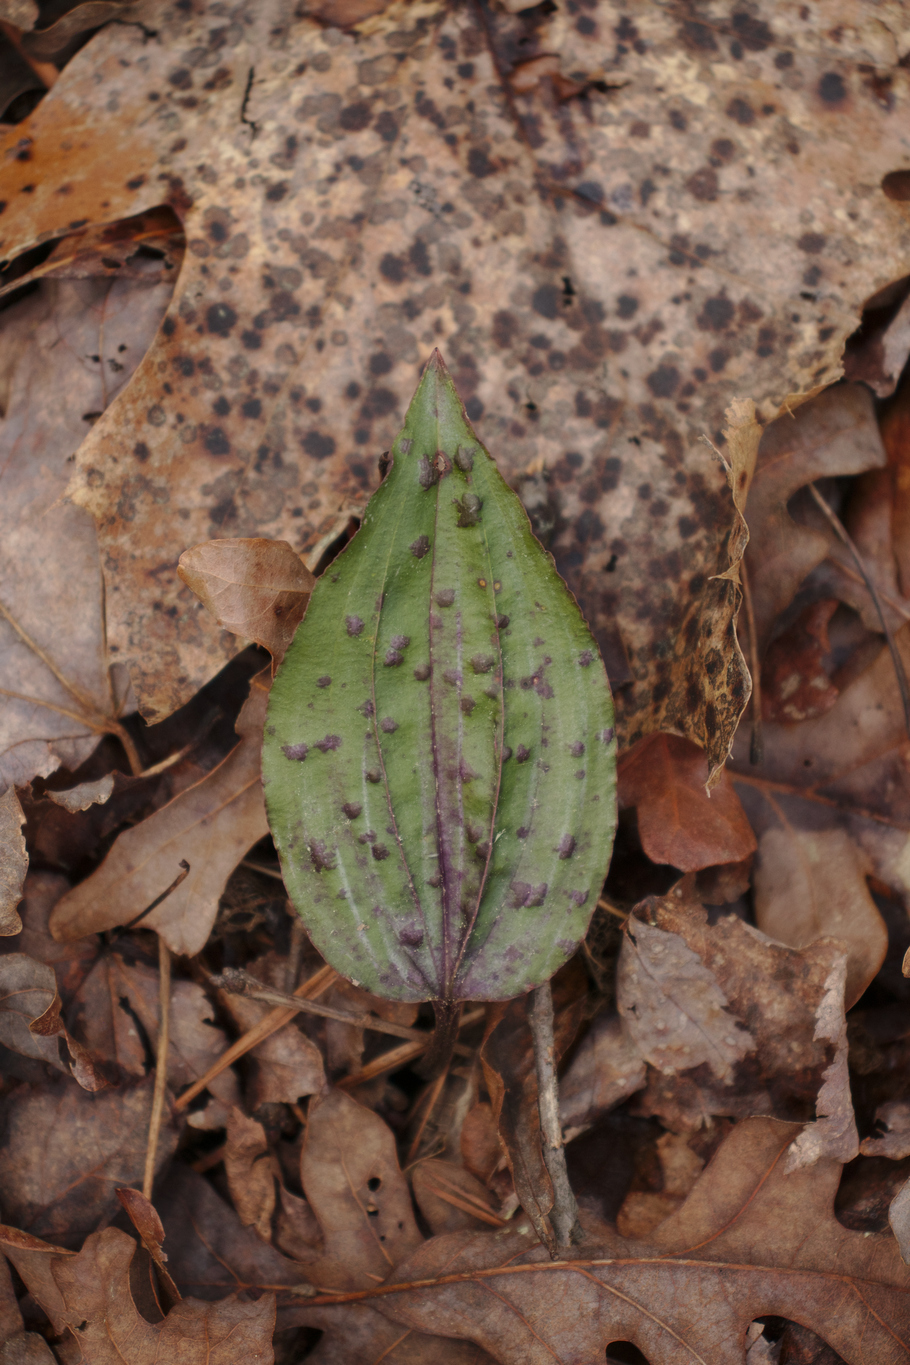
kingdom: Plantae
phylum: Tracheophyta
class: Liliopsida
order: Asparagales
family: Orchidaceae
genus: Tipularia
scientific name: Tipularia discolor
